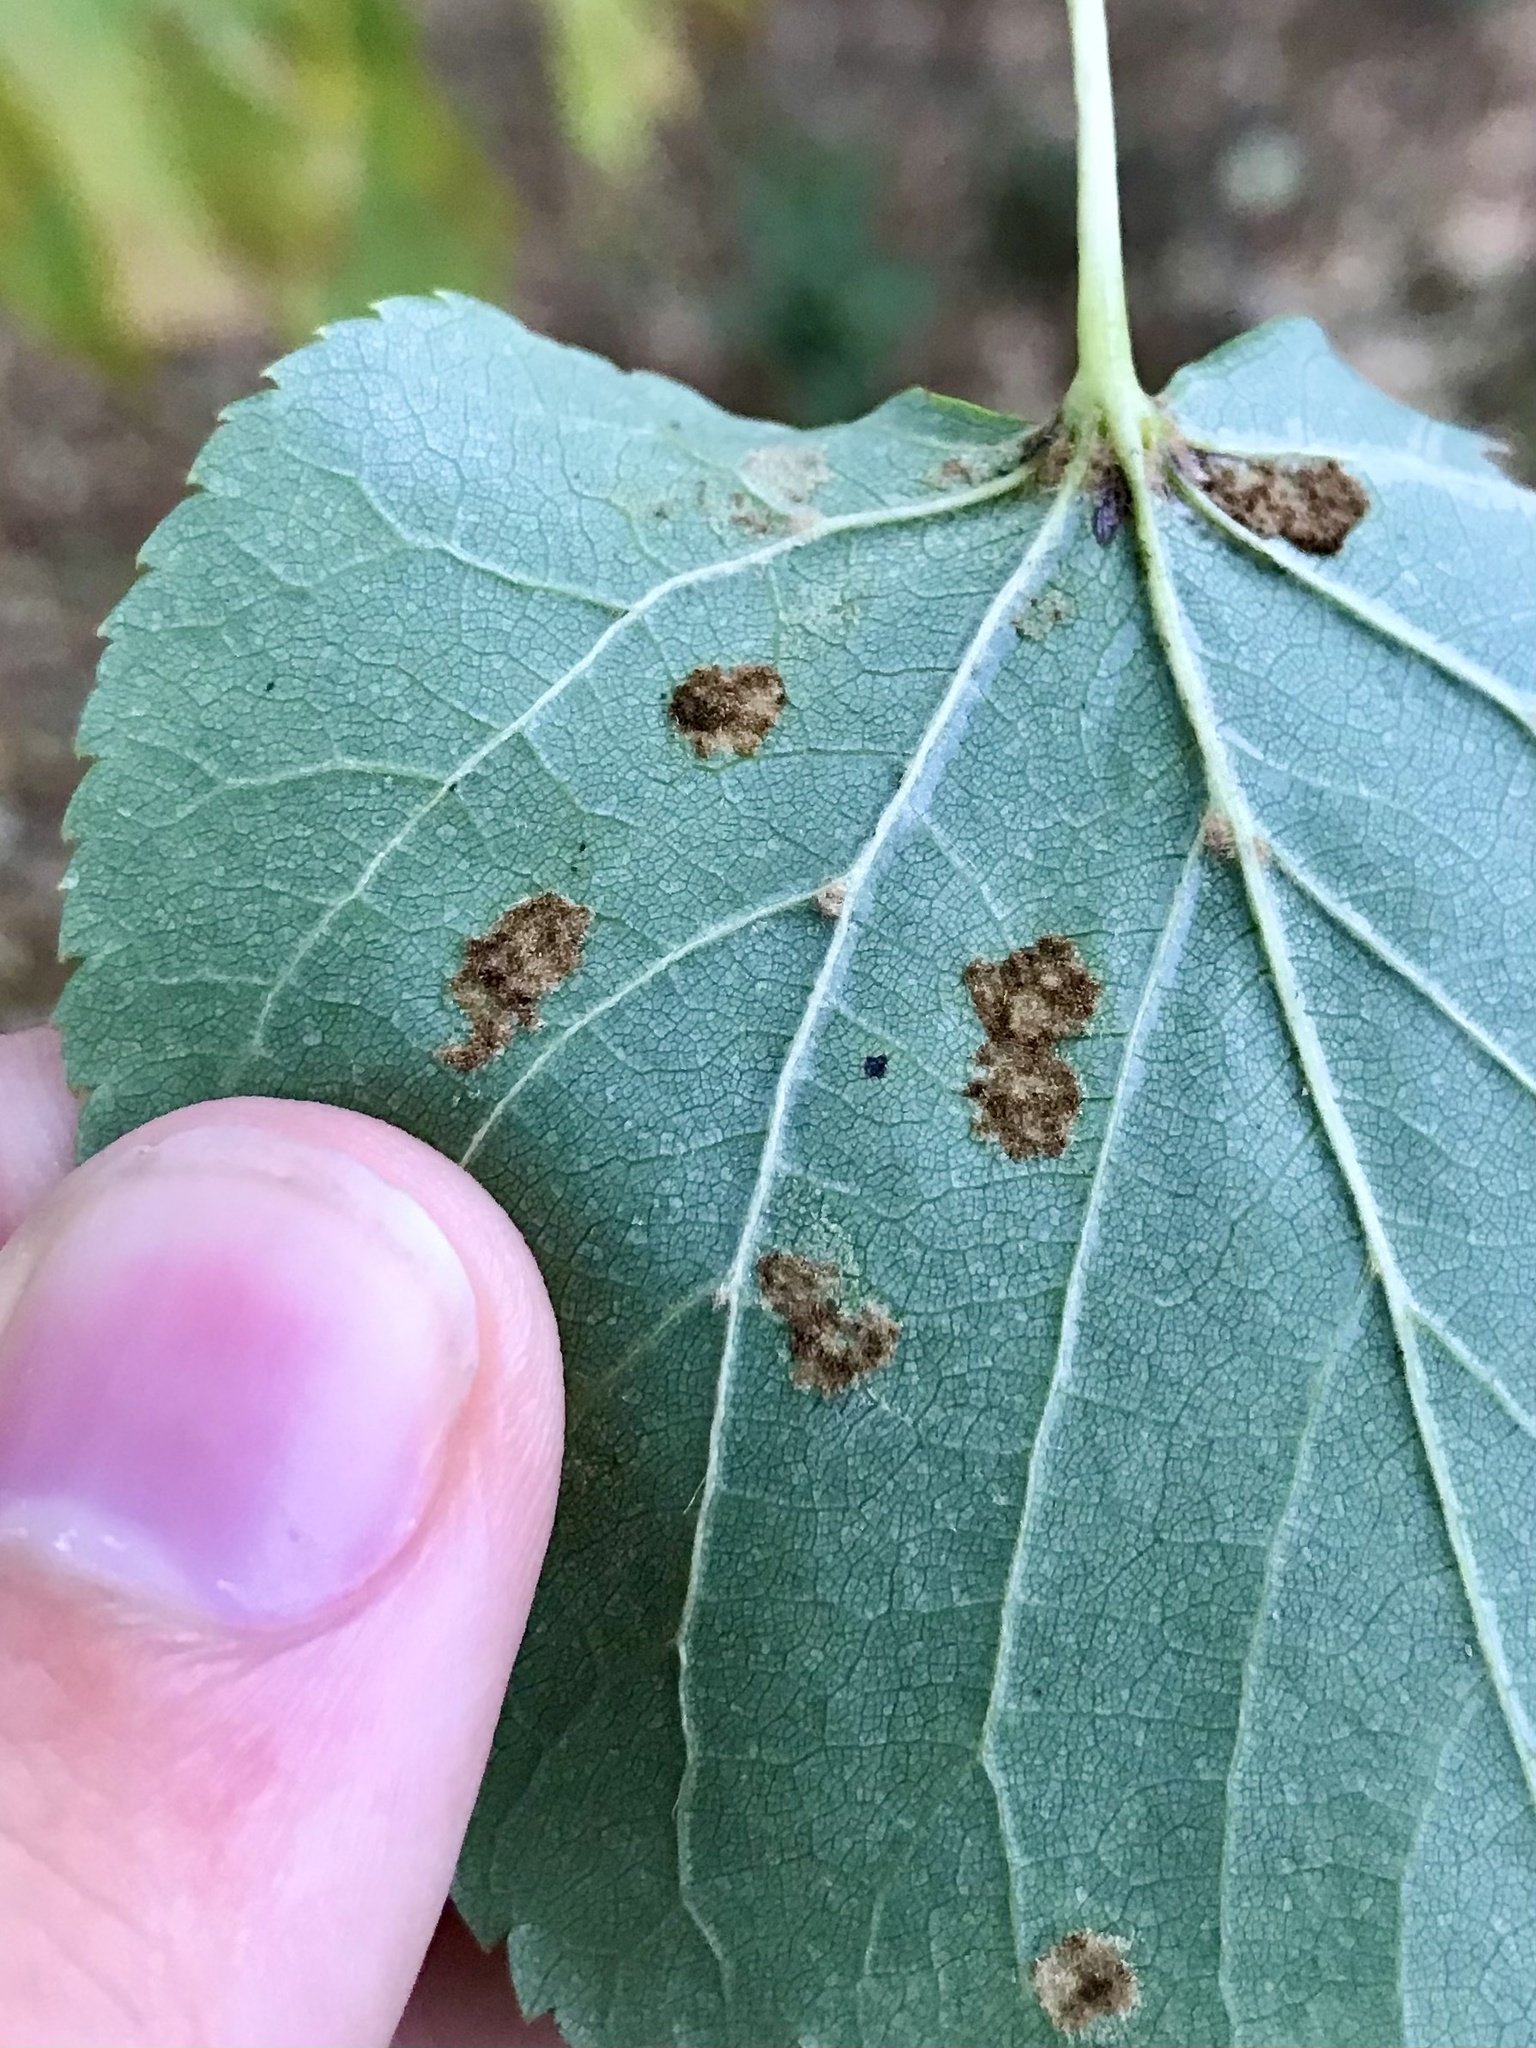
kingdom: Animalia
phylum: Arthropoda
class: Arachnida
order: Trombidiformes
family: Eriophyidae
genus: Eriophyes
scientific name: Eriophyes leiosoma
